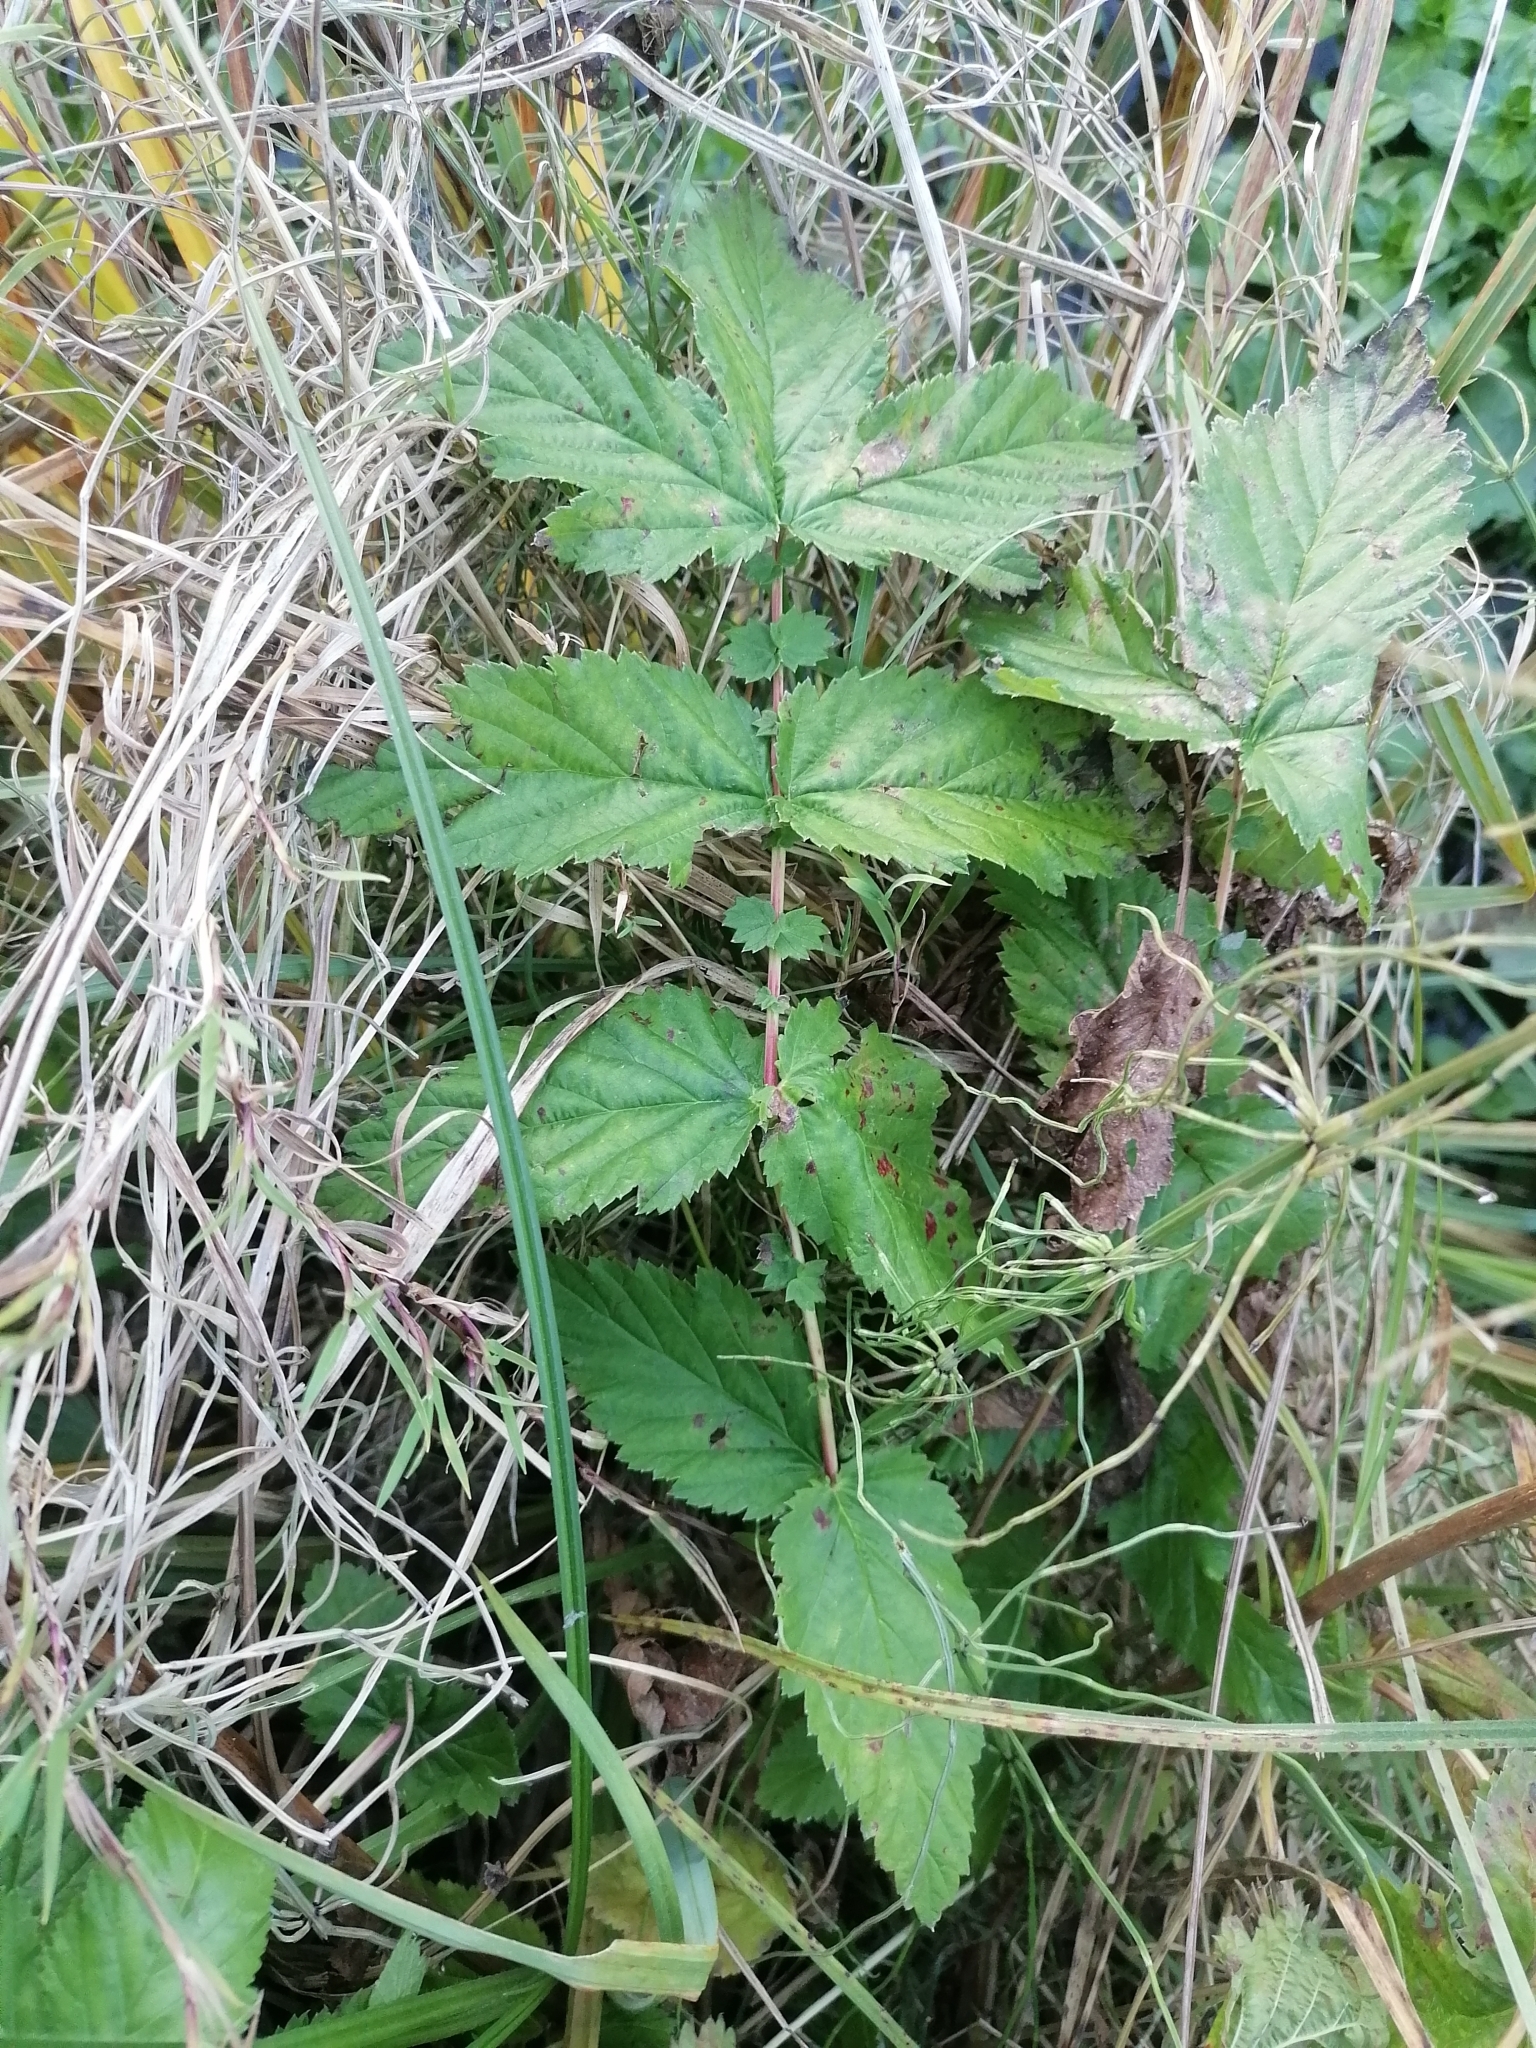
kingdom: Plantae
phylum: Tracheophyta
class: Magnoliopsida
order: Rosales
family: Rosaceae
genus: Filipendula
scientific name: Filipendula ulmaria
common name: Meadowsweet
